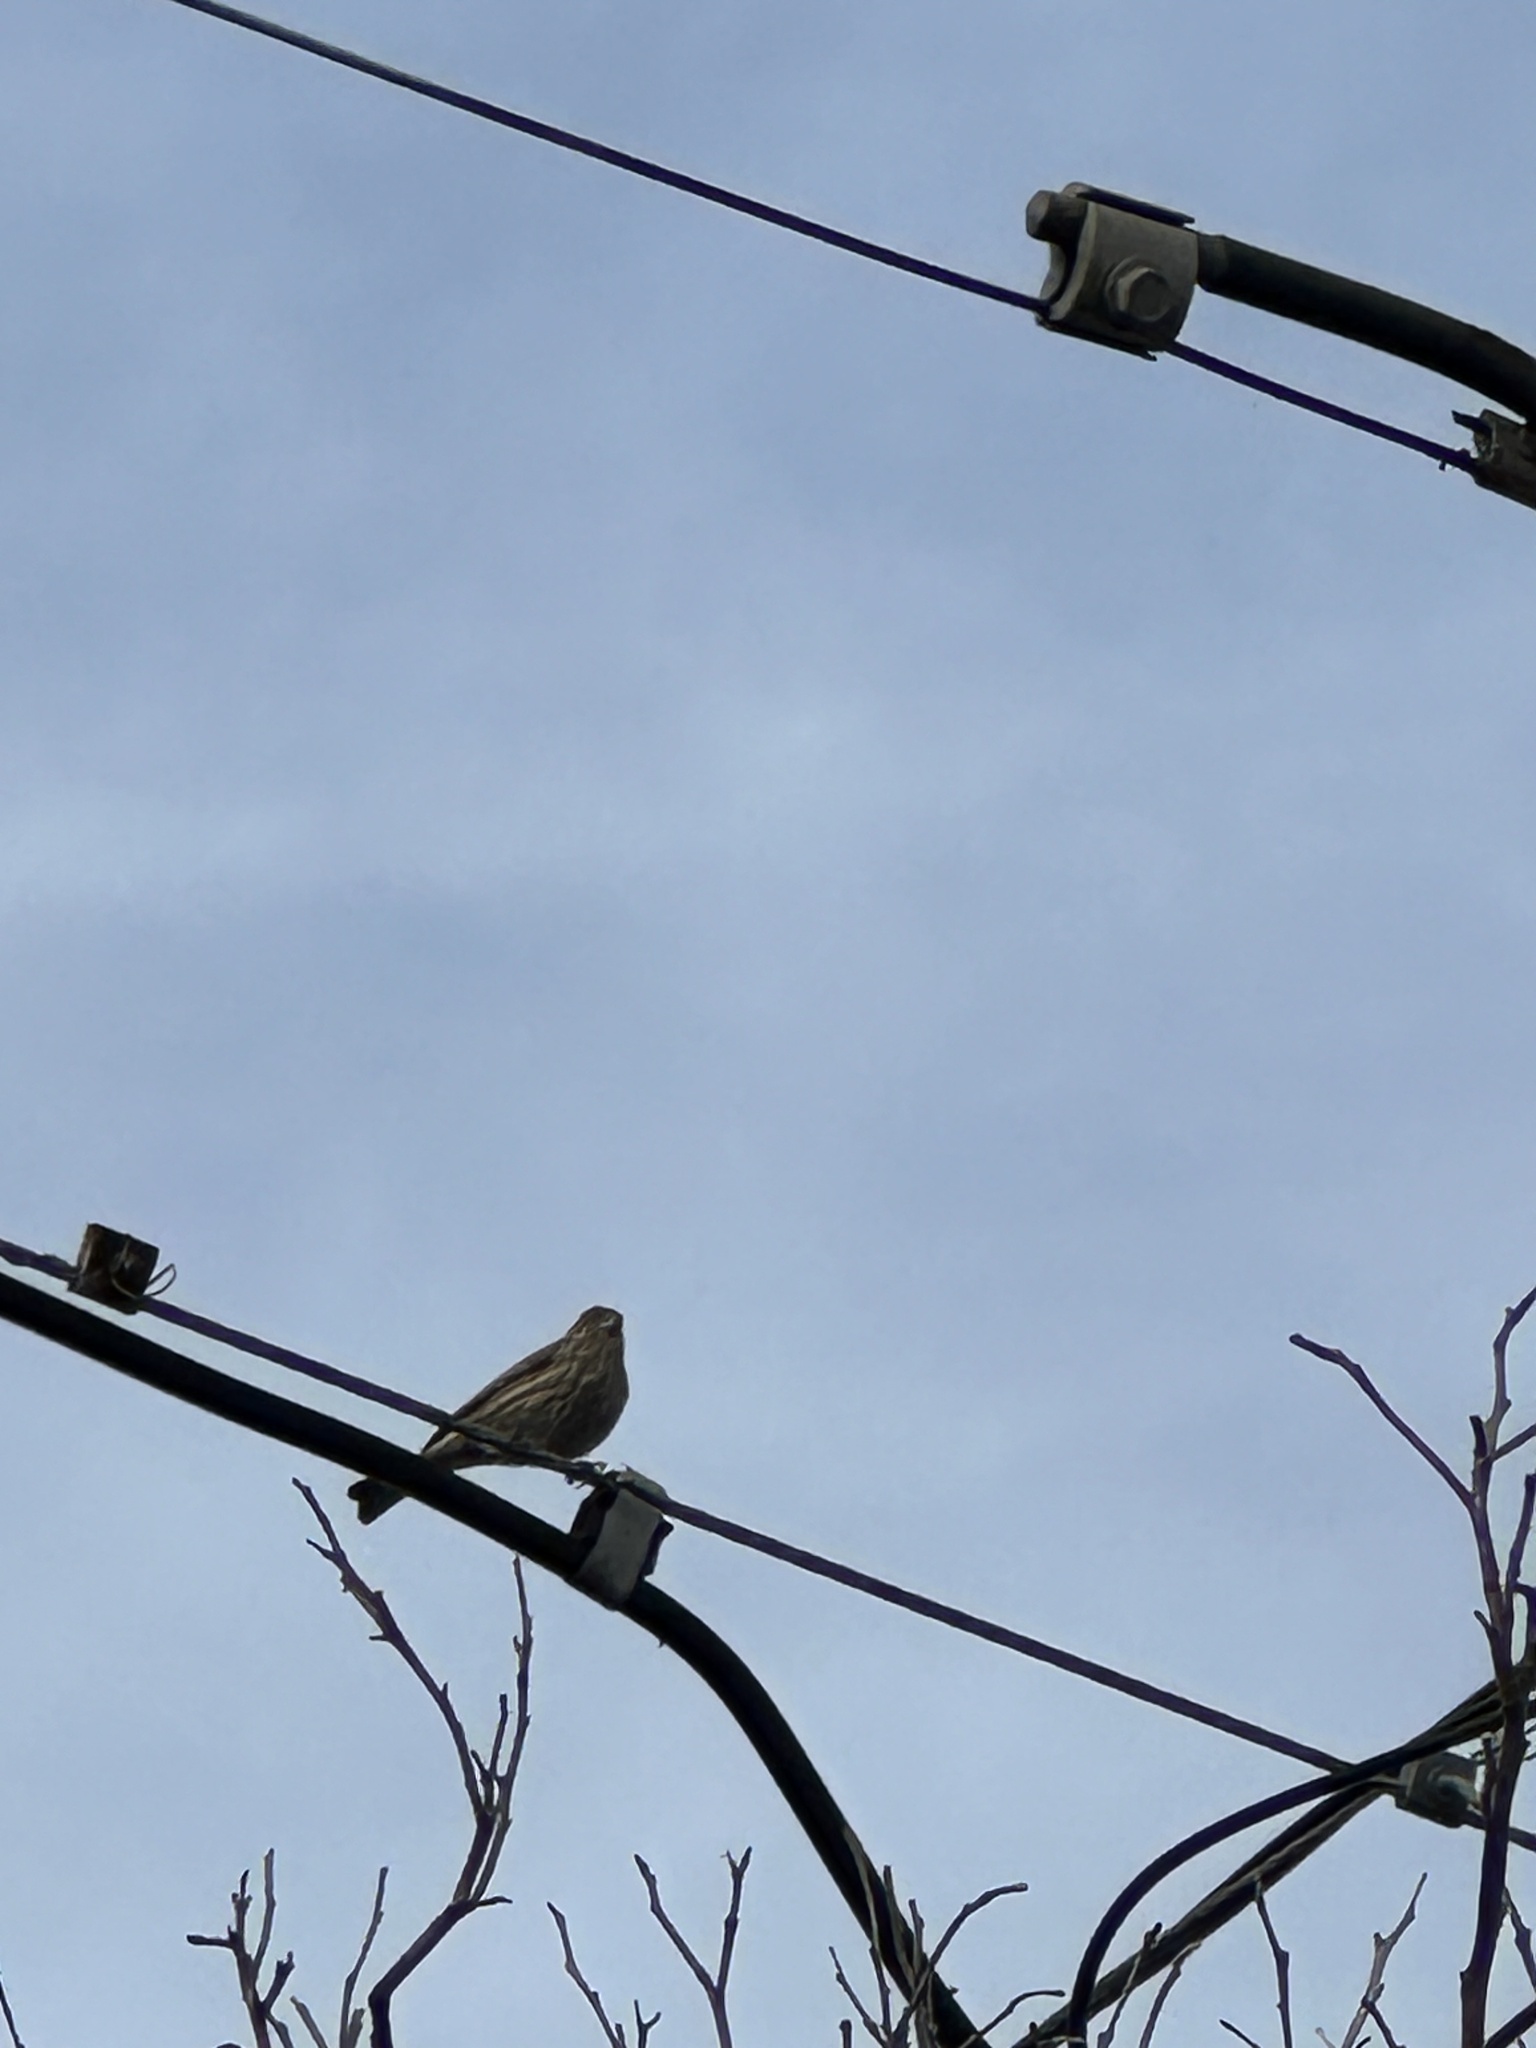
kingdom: Animalia
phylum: Chordata
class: Aves
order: Passeriformes
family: Fringillidae
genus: Haemorhous
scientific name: Haemorhous mexicanus
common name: House finch
